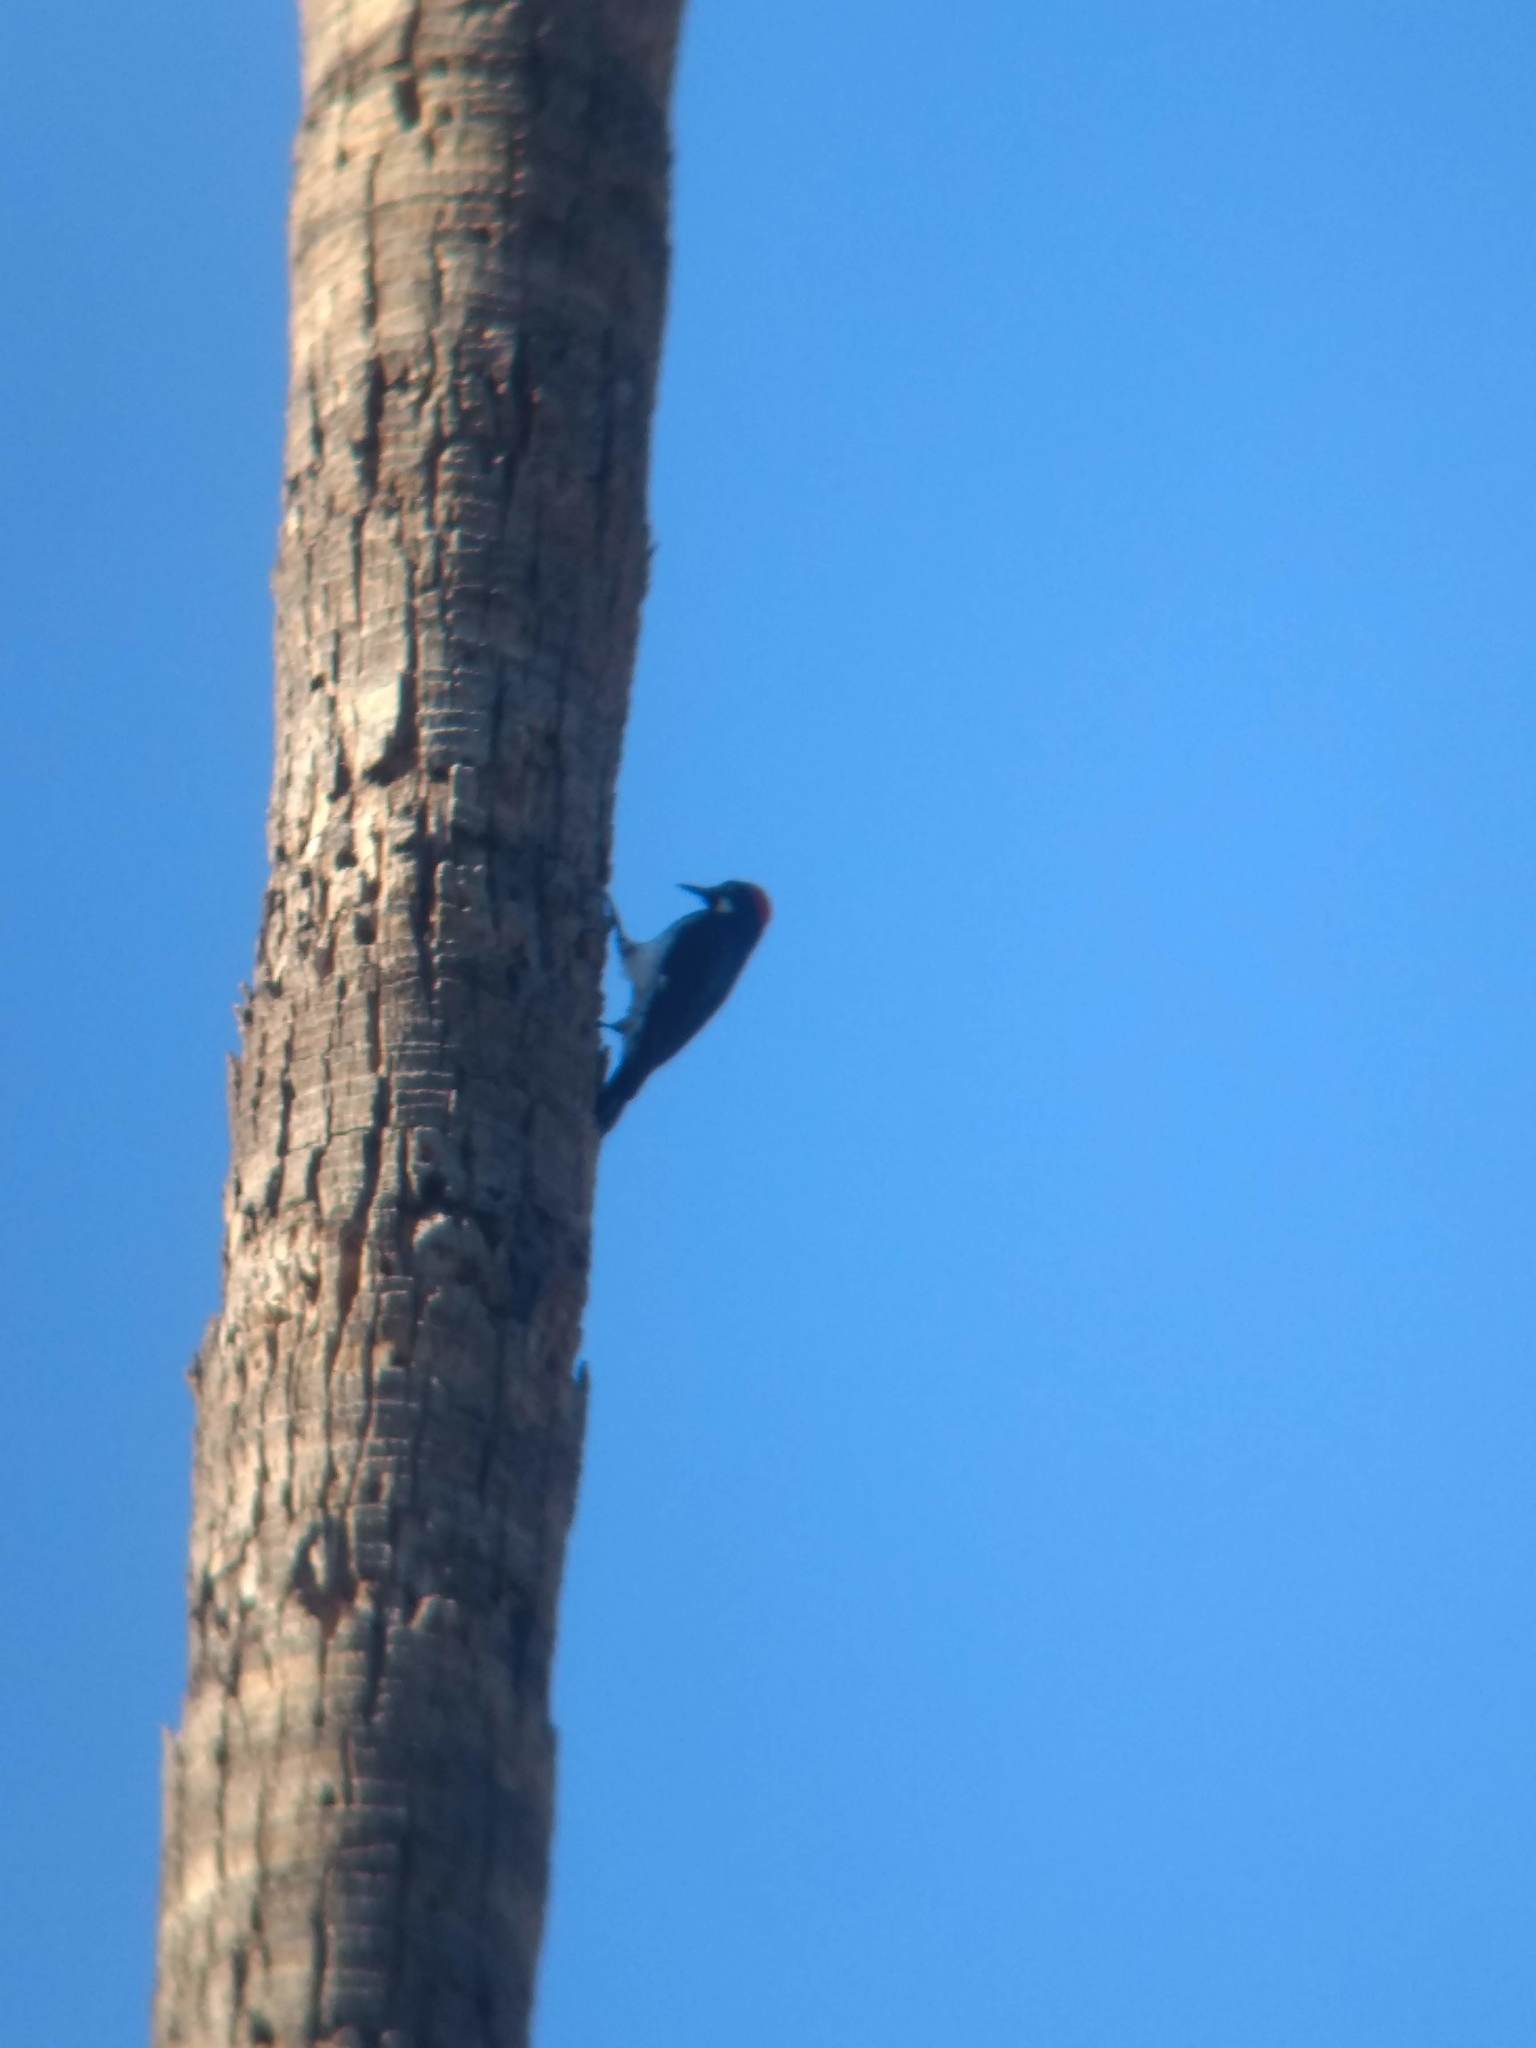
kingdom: Animalia
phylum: Chordata
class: Aves
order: Piciformes
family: Picidae
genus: Melanerpes
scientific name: Melanerpes formicivorus
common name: Acorn woodpecker
